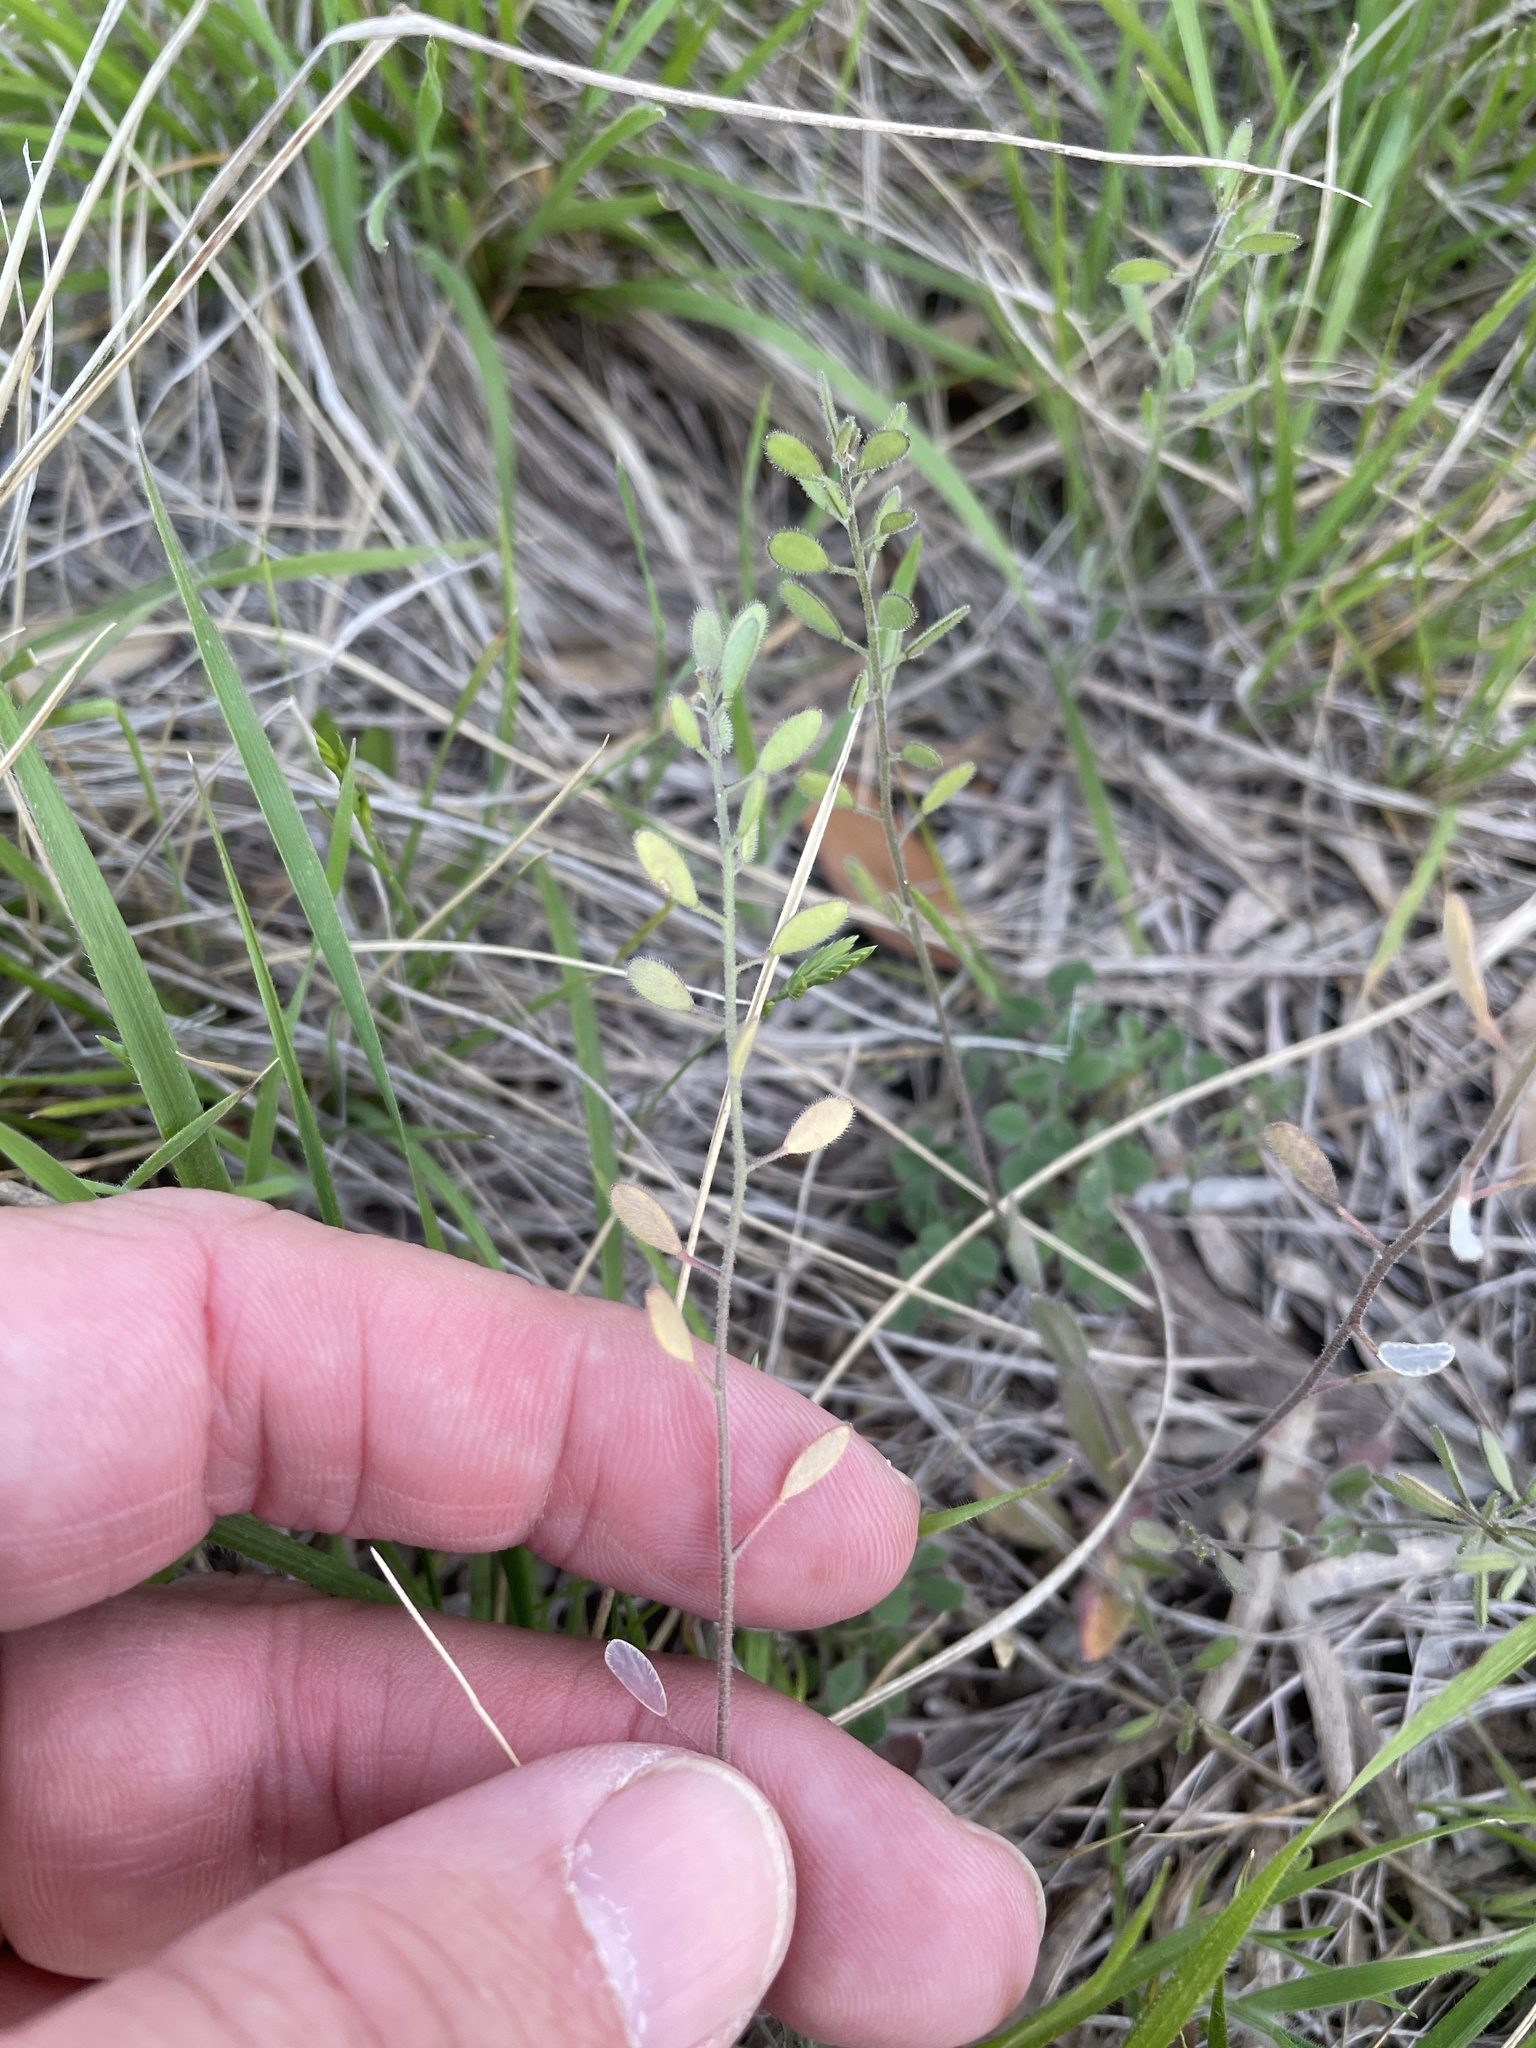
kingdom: Plantae
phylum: Tracheophyta
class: Magnoliopsida
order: Brassicales
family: Brassicaceae
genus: Tomostima
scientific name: Tomostima platycarpa
